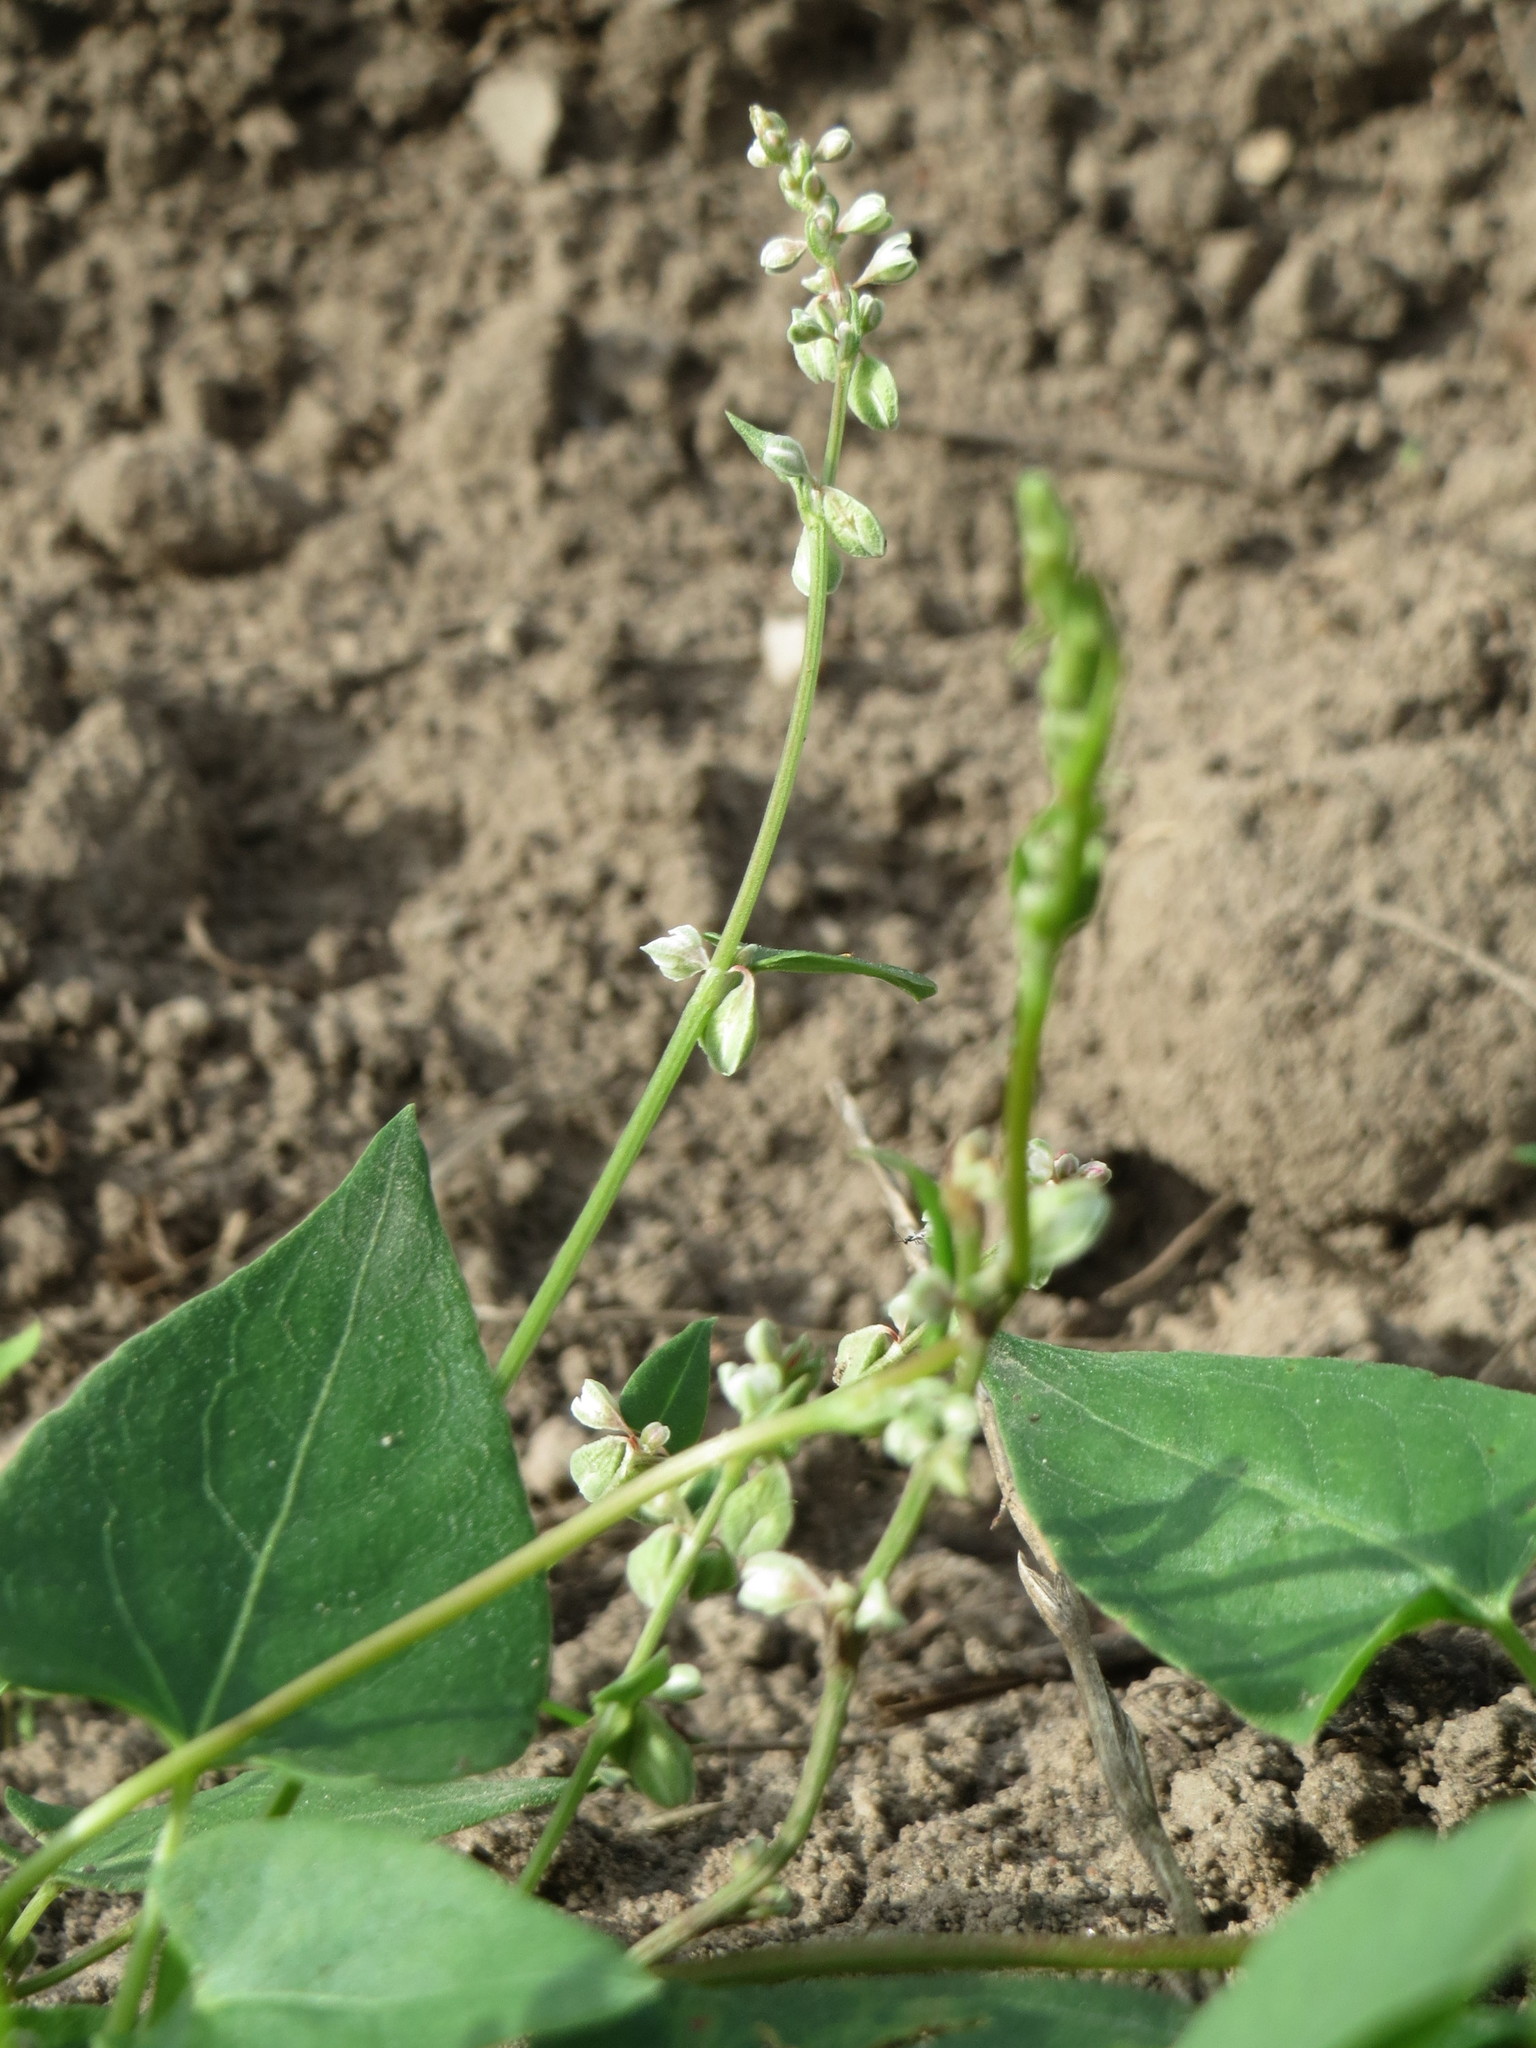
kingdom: Plantae
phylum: Tracheophyta
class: Magnoliopsida
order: Caryophyllales
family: Polygonaceae
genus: Fallopia
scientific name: Fallopia convolvulus
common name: Black bindweed
